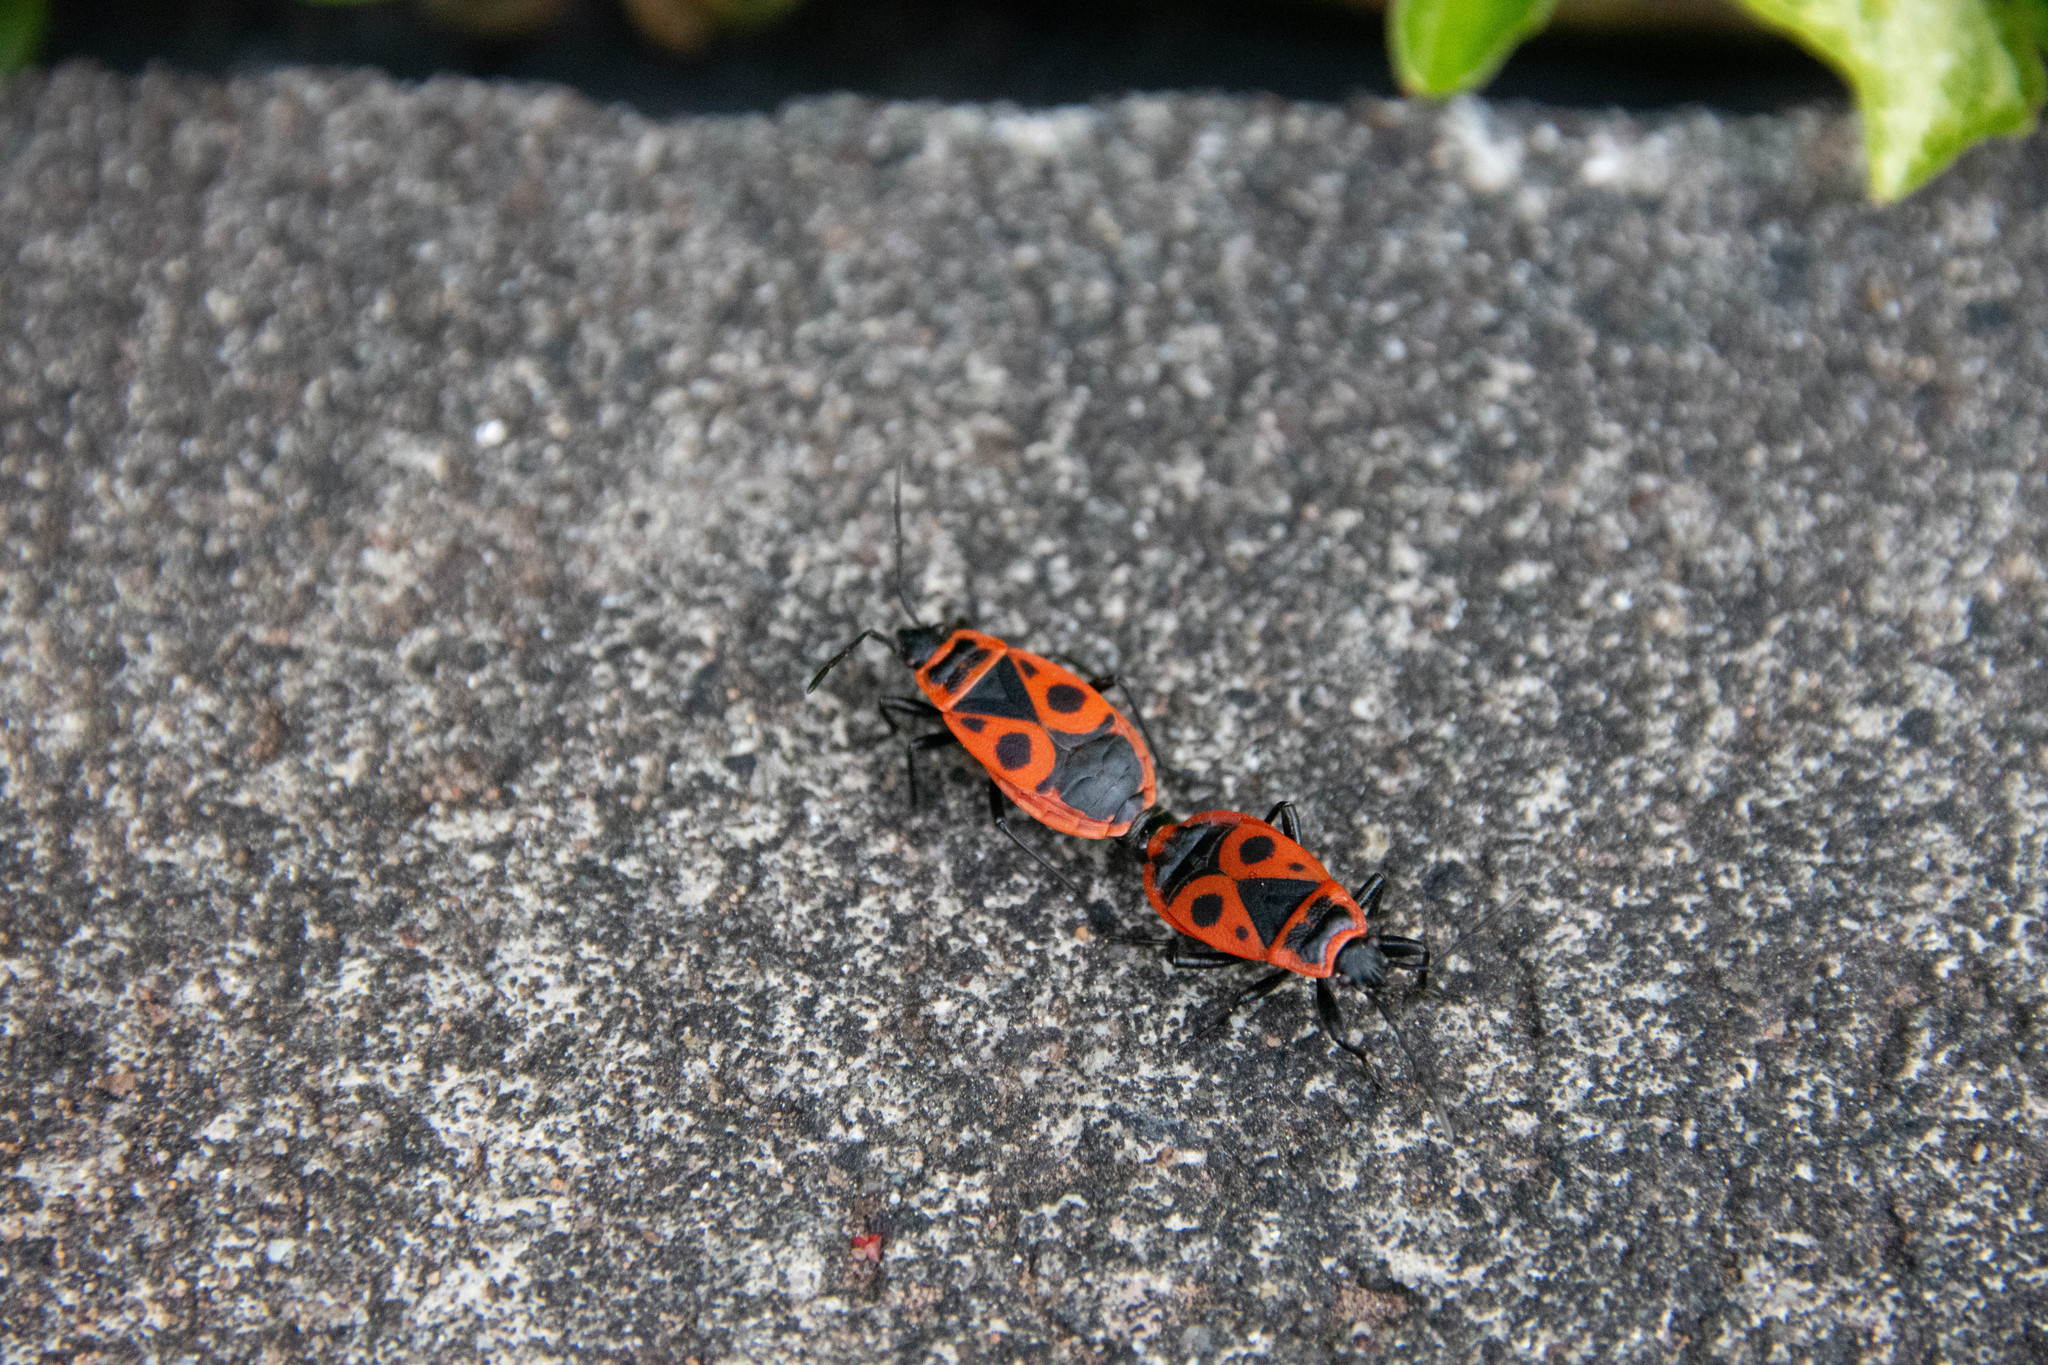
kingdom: Animalia
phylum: Arthropoda
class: Insecta
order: Hemiptera
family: Pyrrhocoridae
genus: Pyrrhocoris
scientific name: Pyrrhocoris apterus
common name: Firebug
